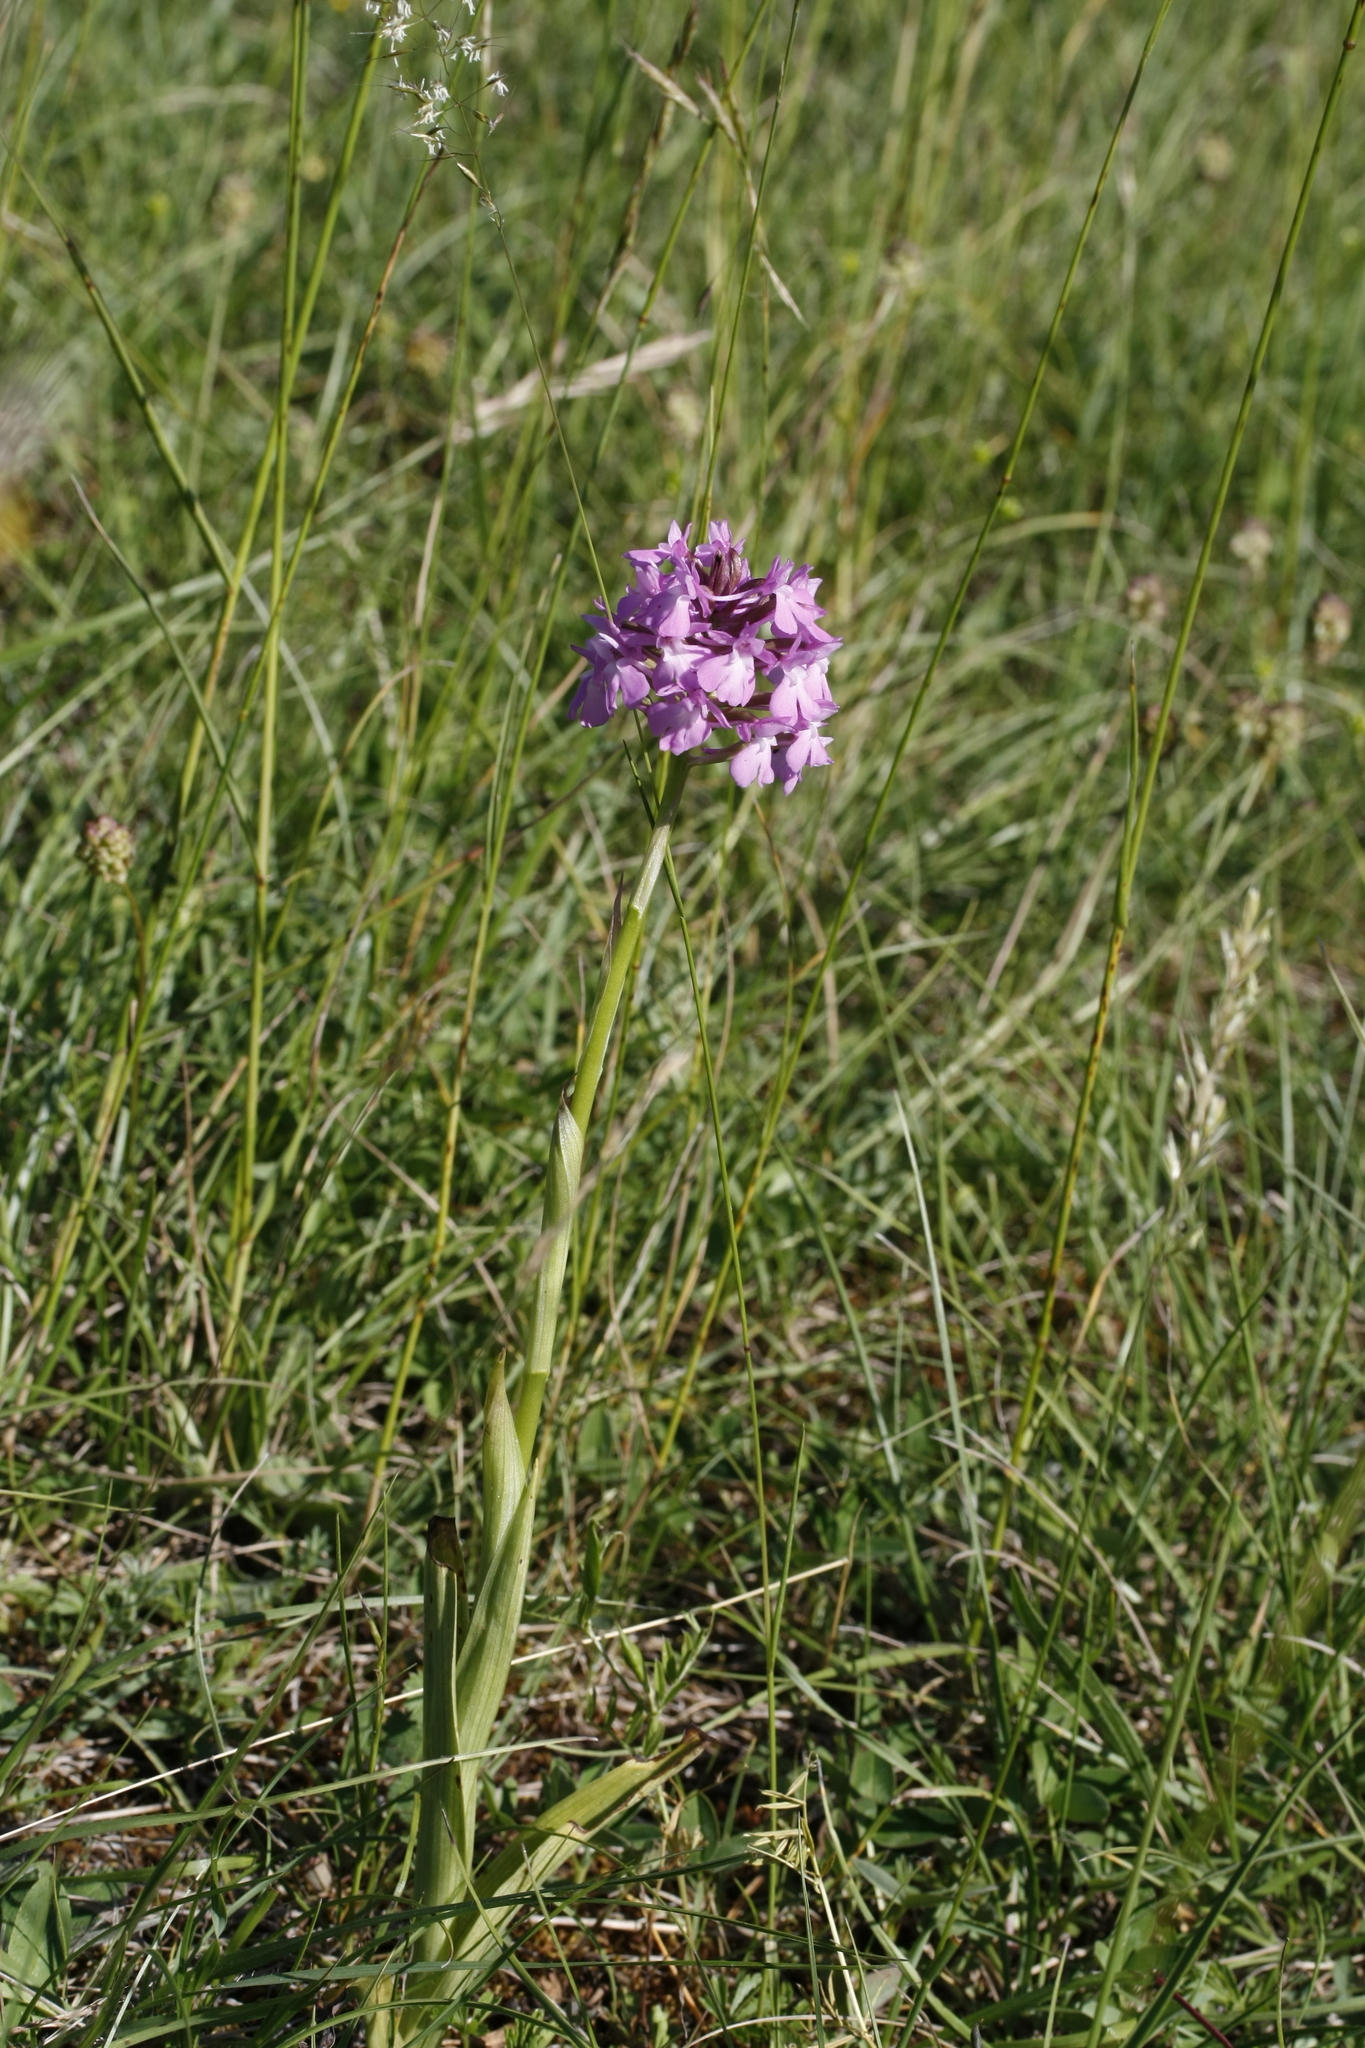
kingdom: Plantae
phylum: Tracheophyta
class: Liliopsida
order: Asparagales
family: Orchidaceae
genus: Anacamptis
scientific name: Anacamptis pyramidalis
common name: Pyramidal orchid
